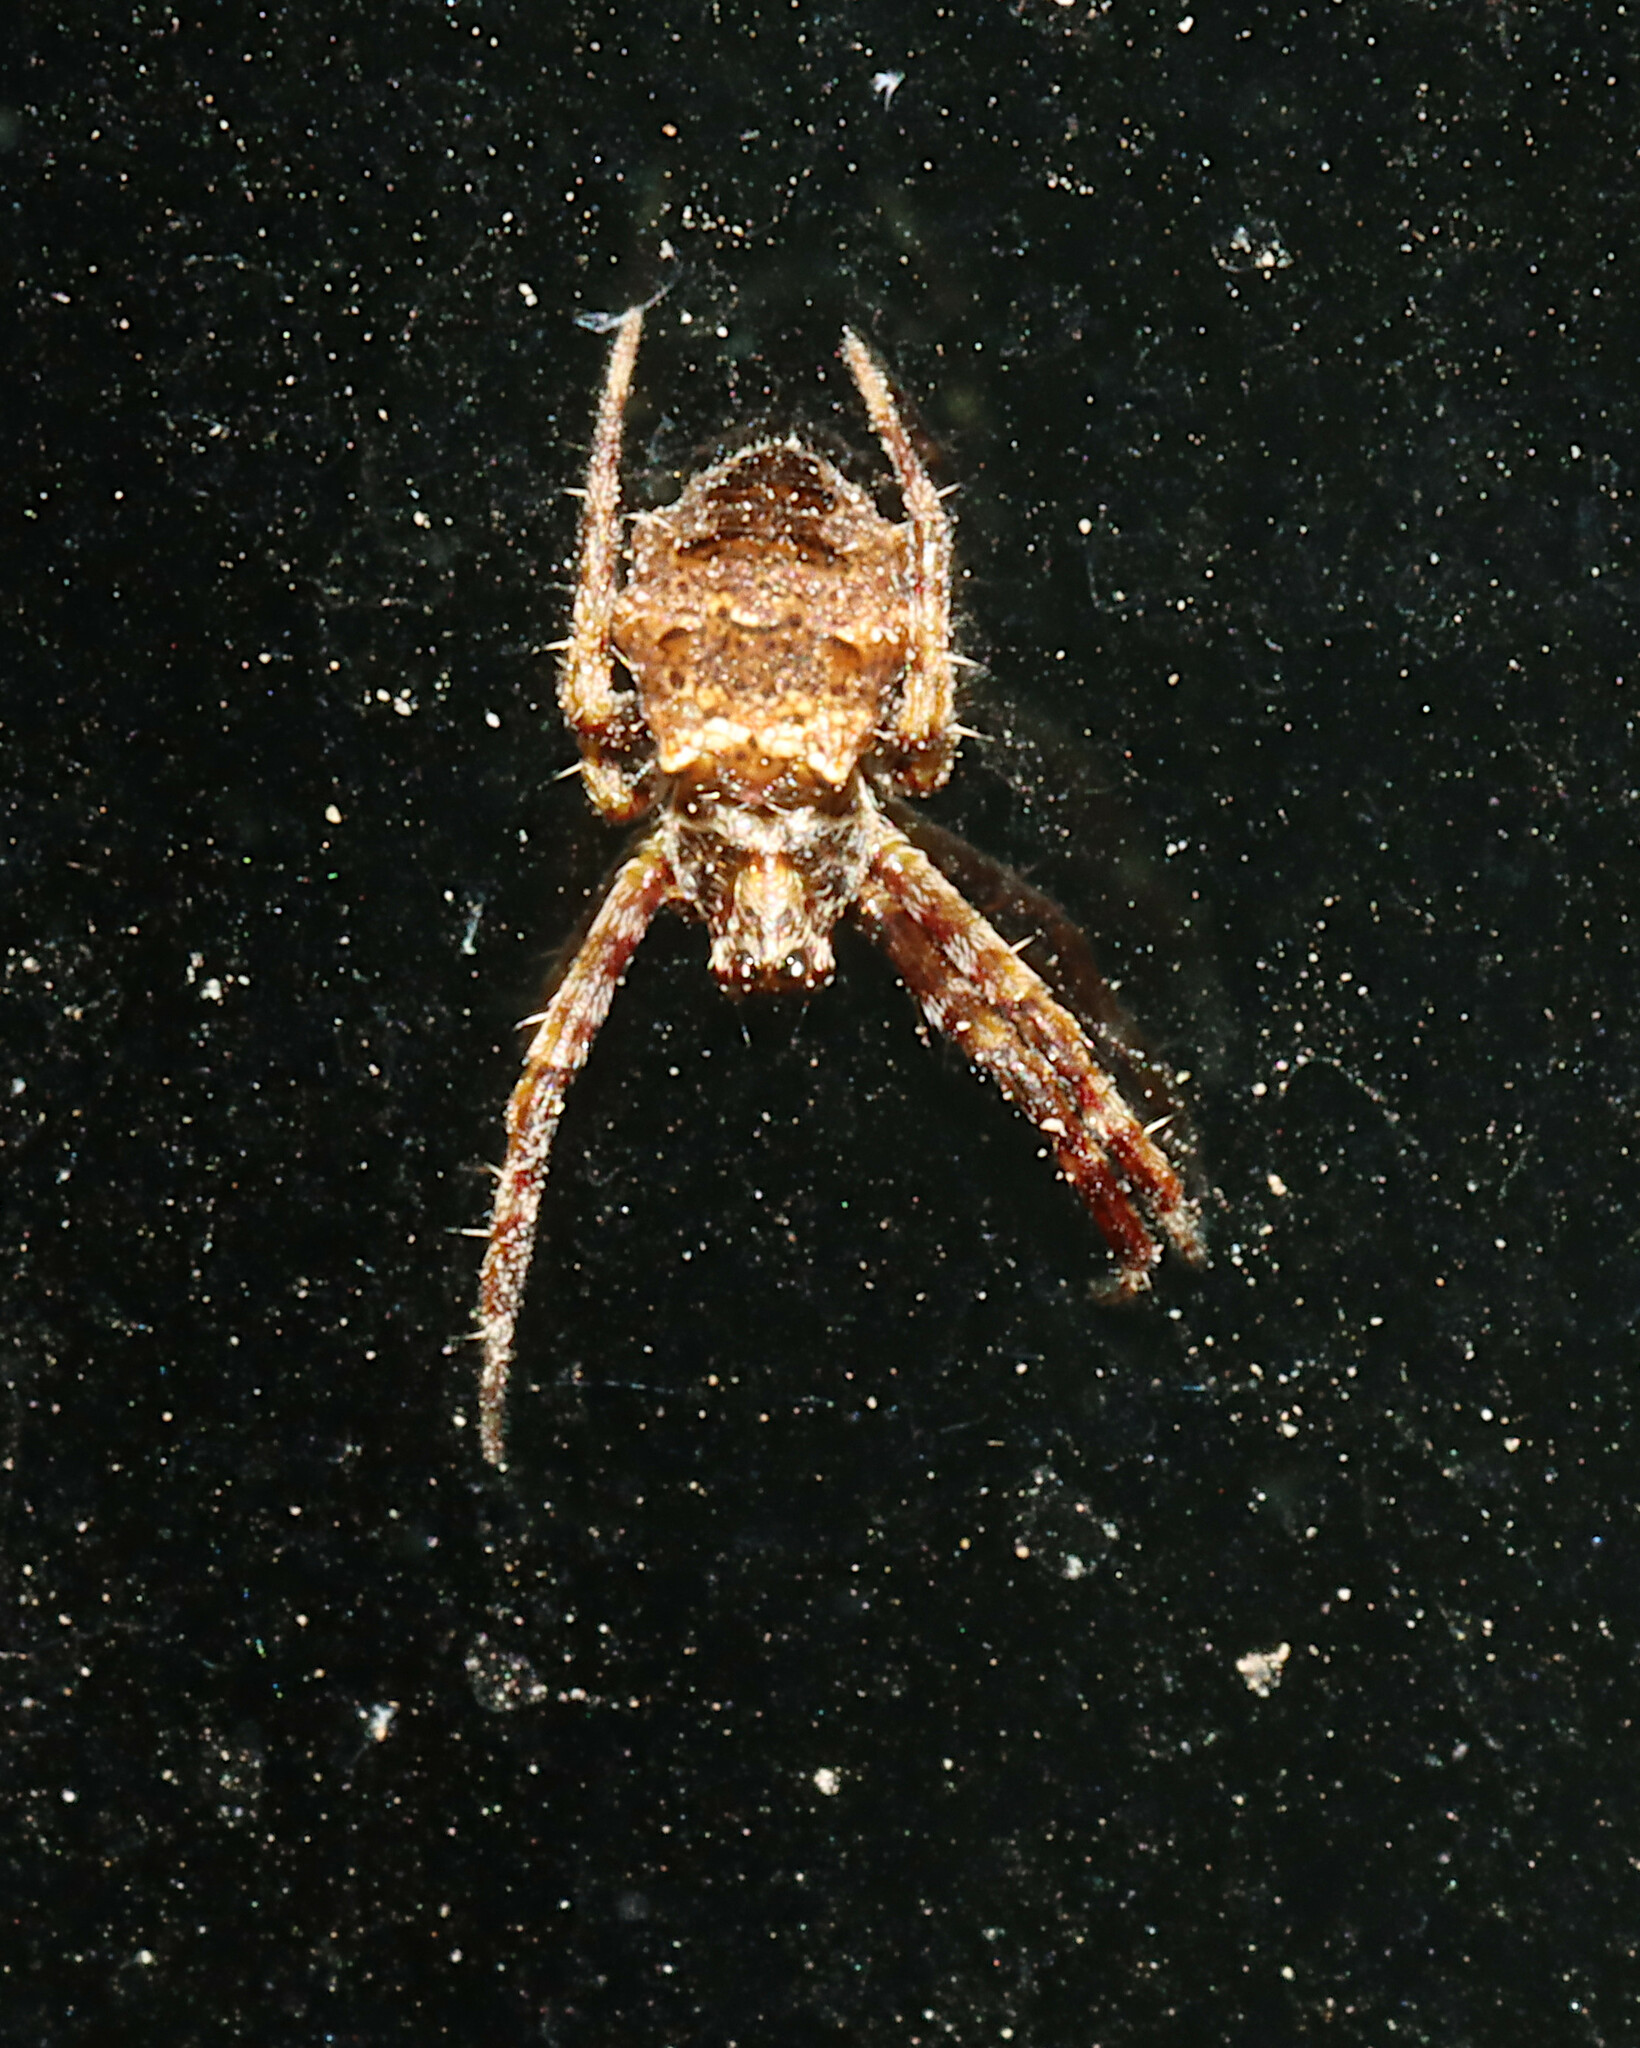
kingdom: Animalia
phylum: Arthropoda
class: Arachnida
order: Araneae
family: Araneidae
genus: Gea
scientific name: Gea heptagon
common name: Orb weavers
